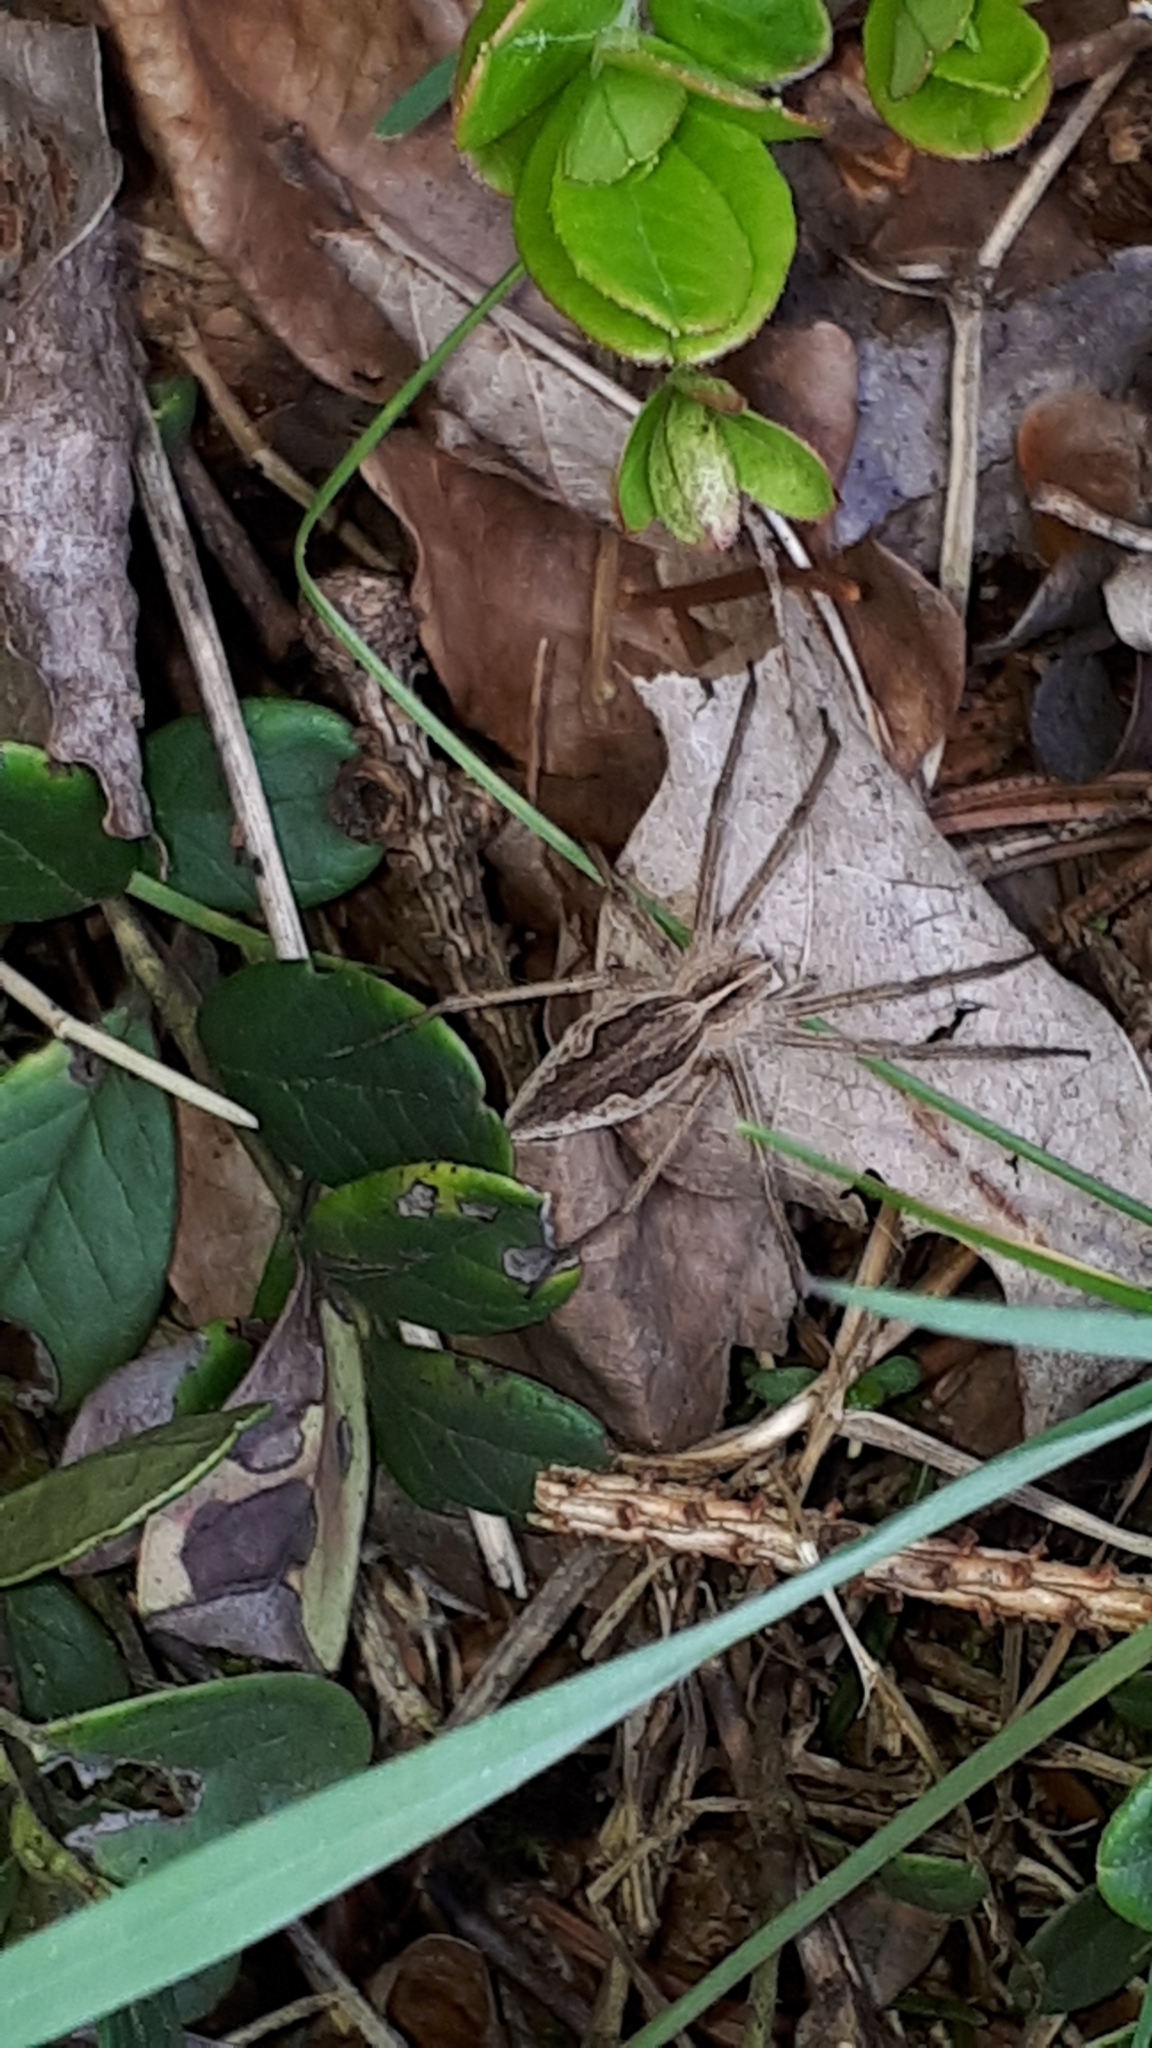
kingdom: Animalia
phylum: Arthropoda
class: Arachnida
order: Araneae
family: Pisauridae
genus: Pisaura
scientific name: Pisaura mirabilis
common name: Tent spider
